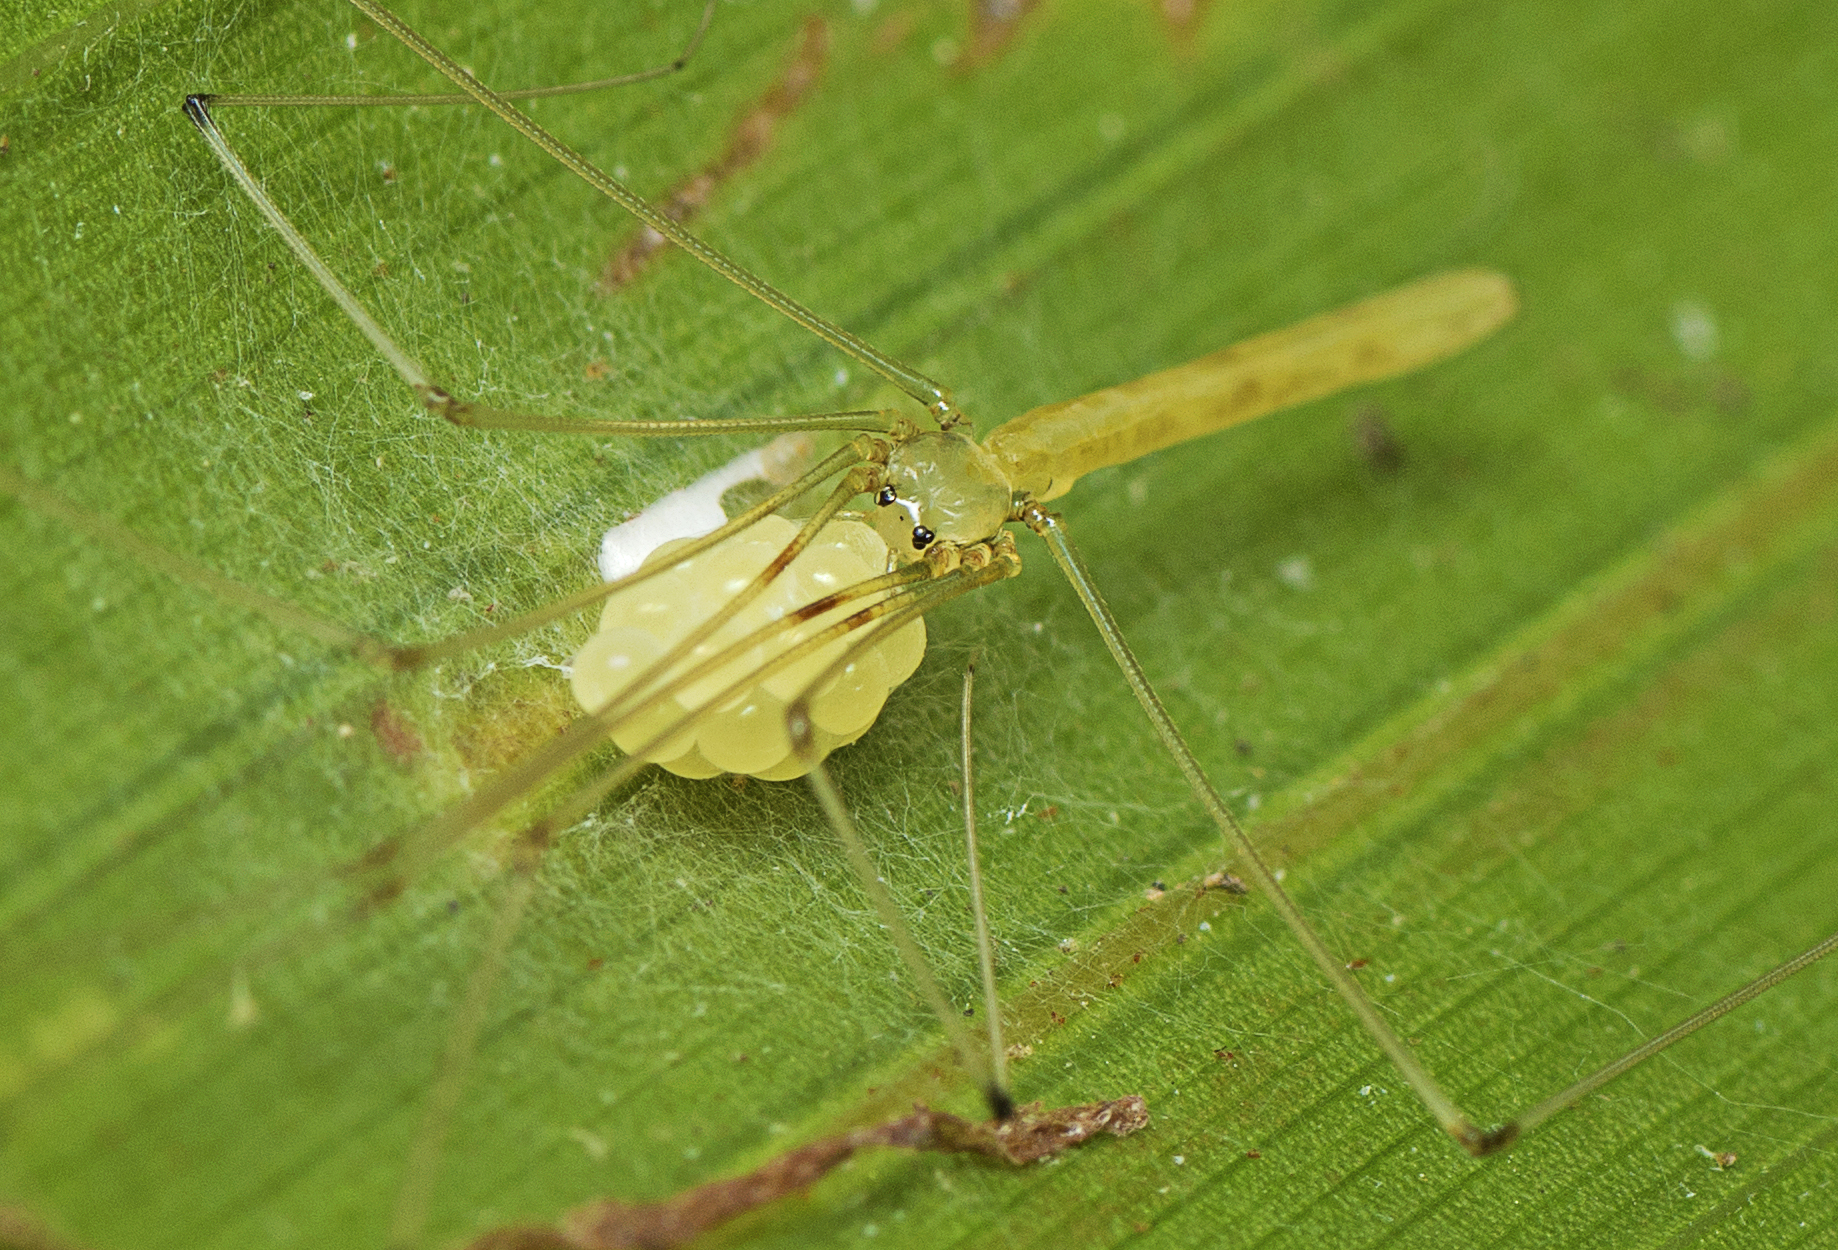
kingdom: Animalia
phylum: Arthropoda
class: Arachnida
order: Araneae
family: Pholcidae
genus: Micromerys
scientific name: Micromerys raveni
